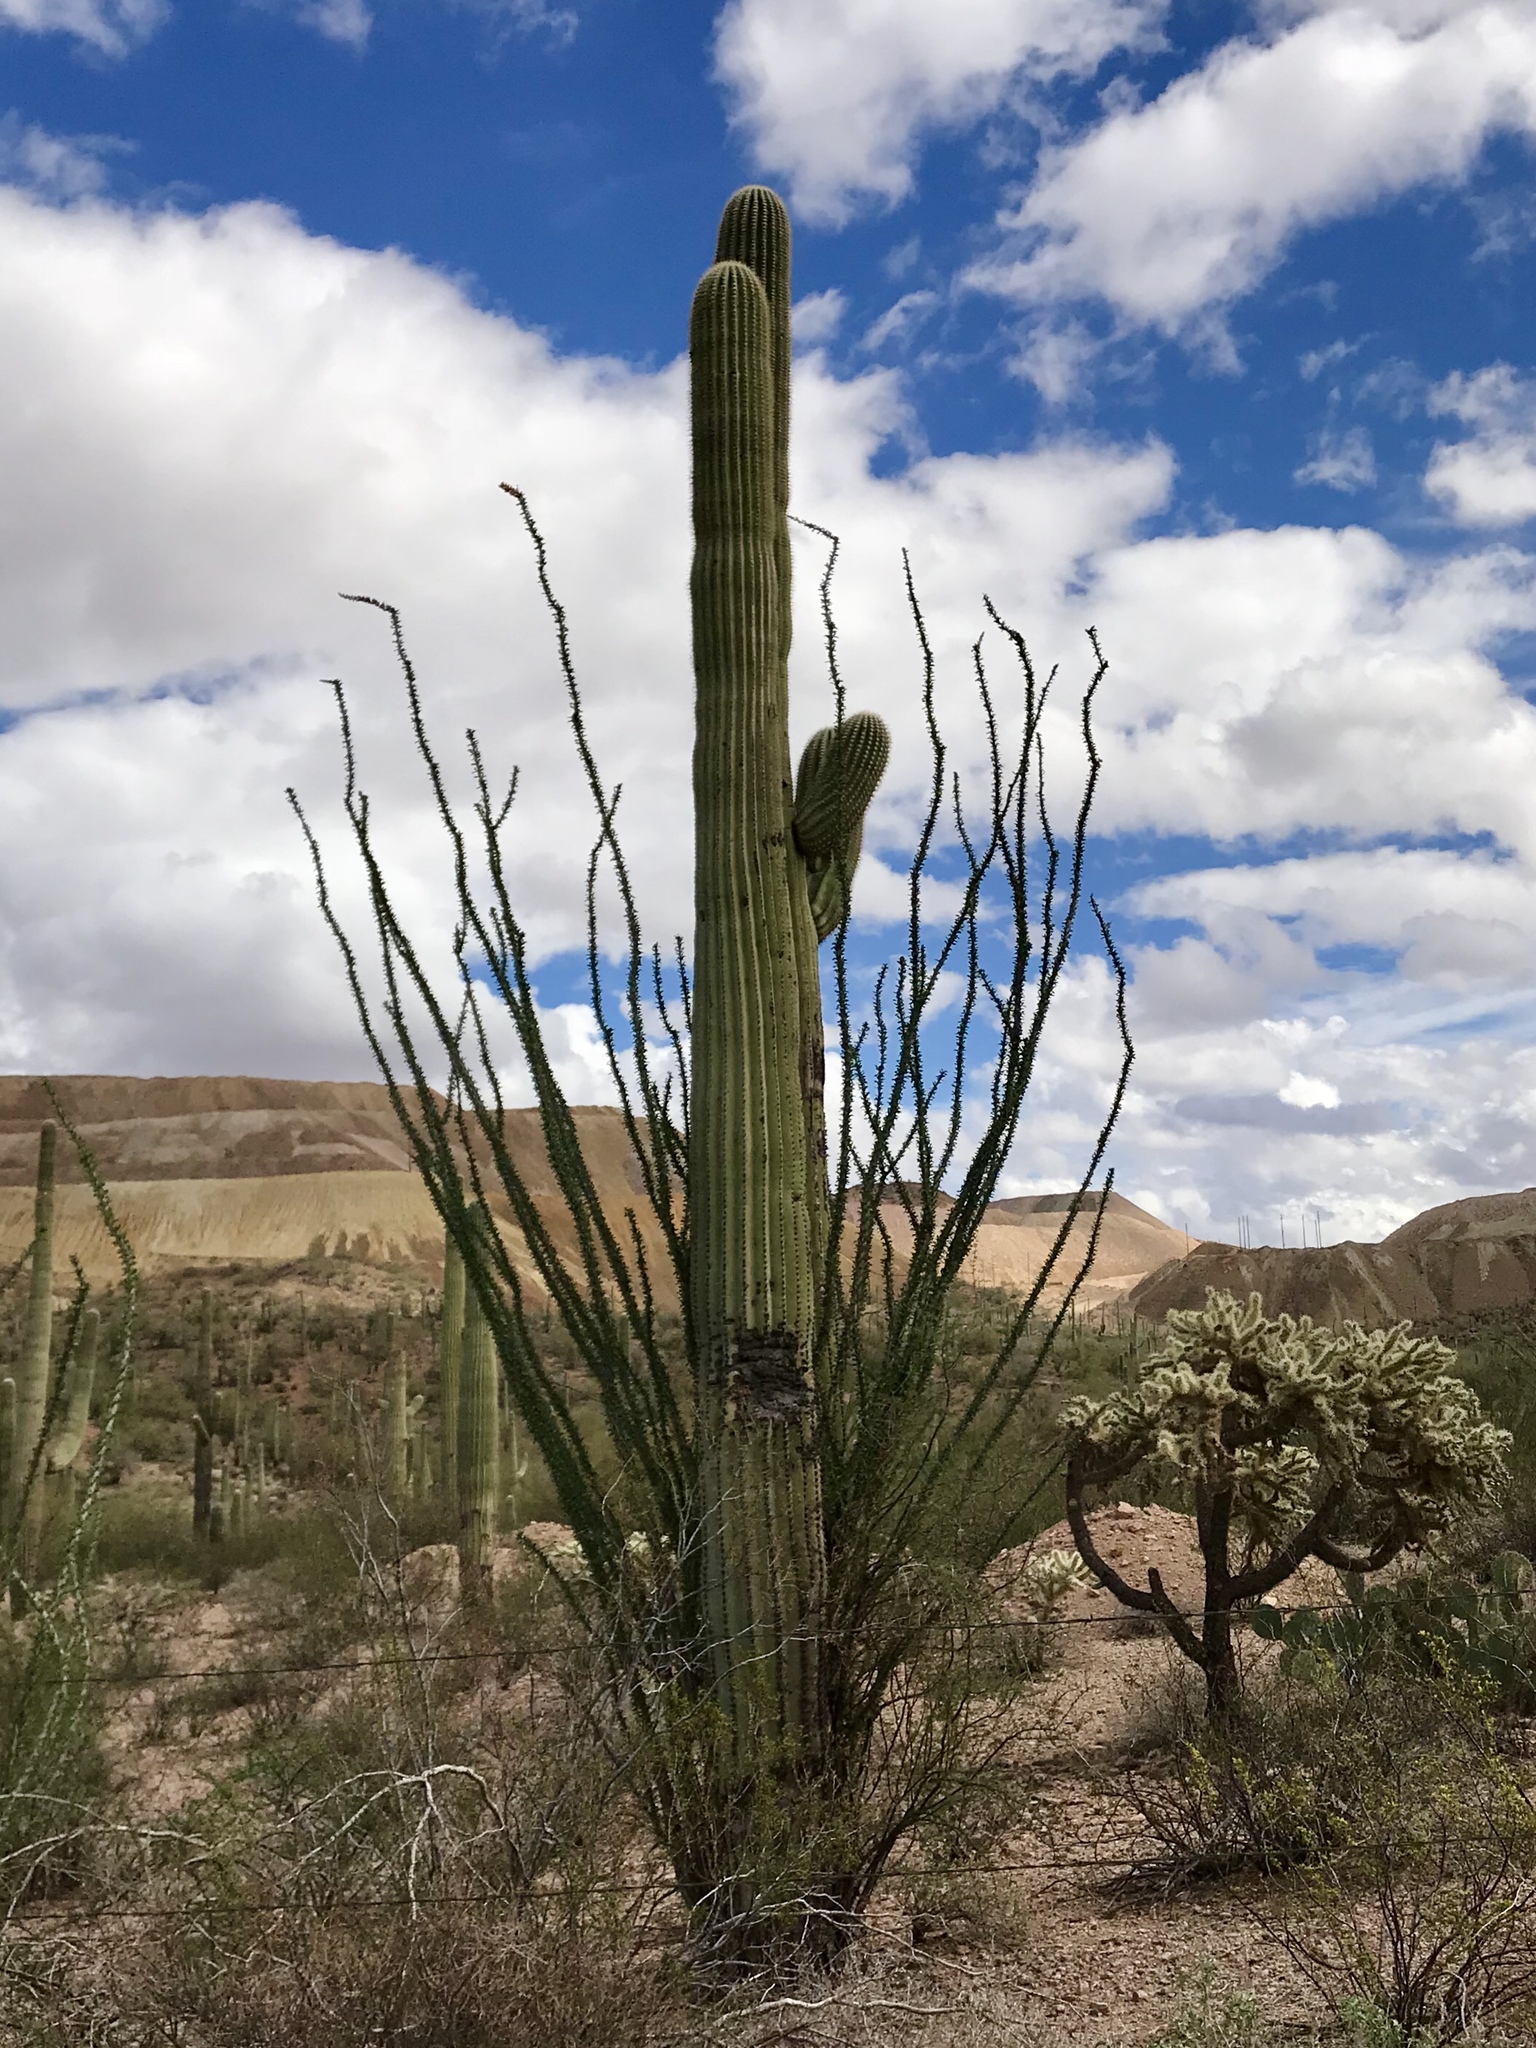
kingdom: Plantae
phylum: Tracheophyta
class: Magnoliopsida
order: Caryophyllales
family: Cactaceae
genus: Carnegiea
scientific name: Carnegiea gigantea
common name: Saguaro
